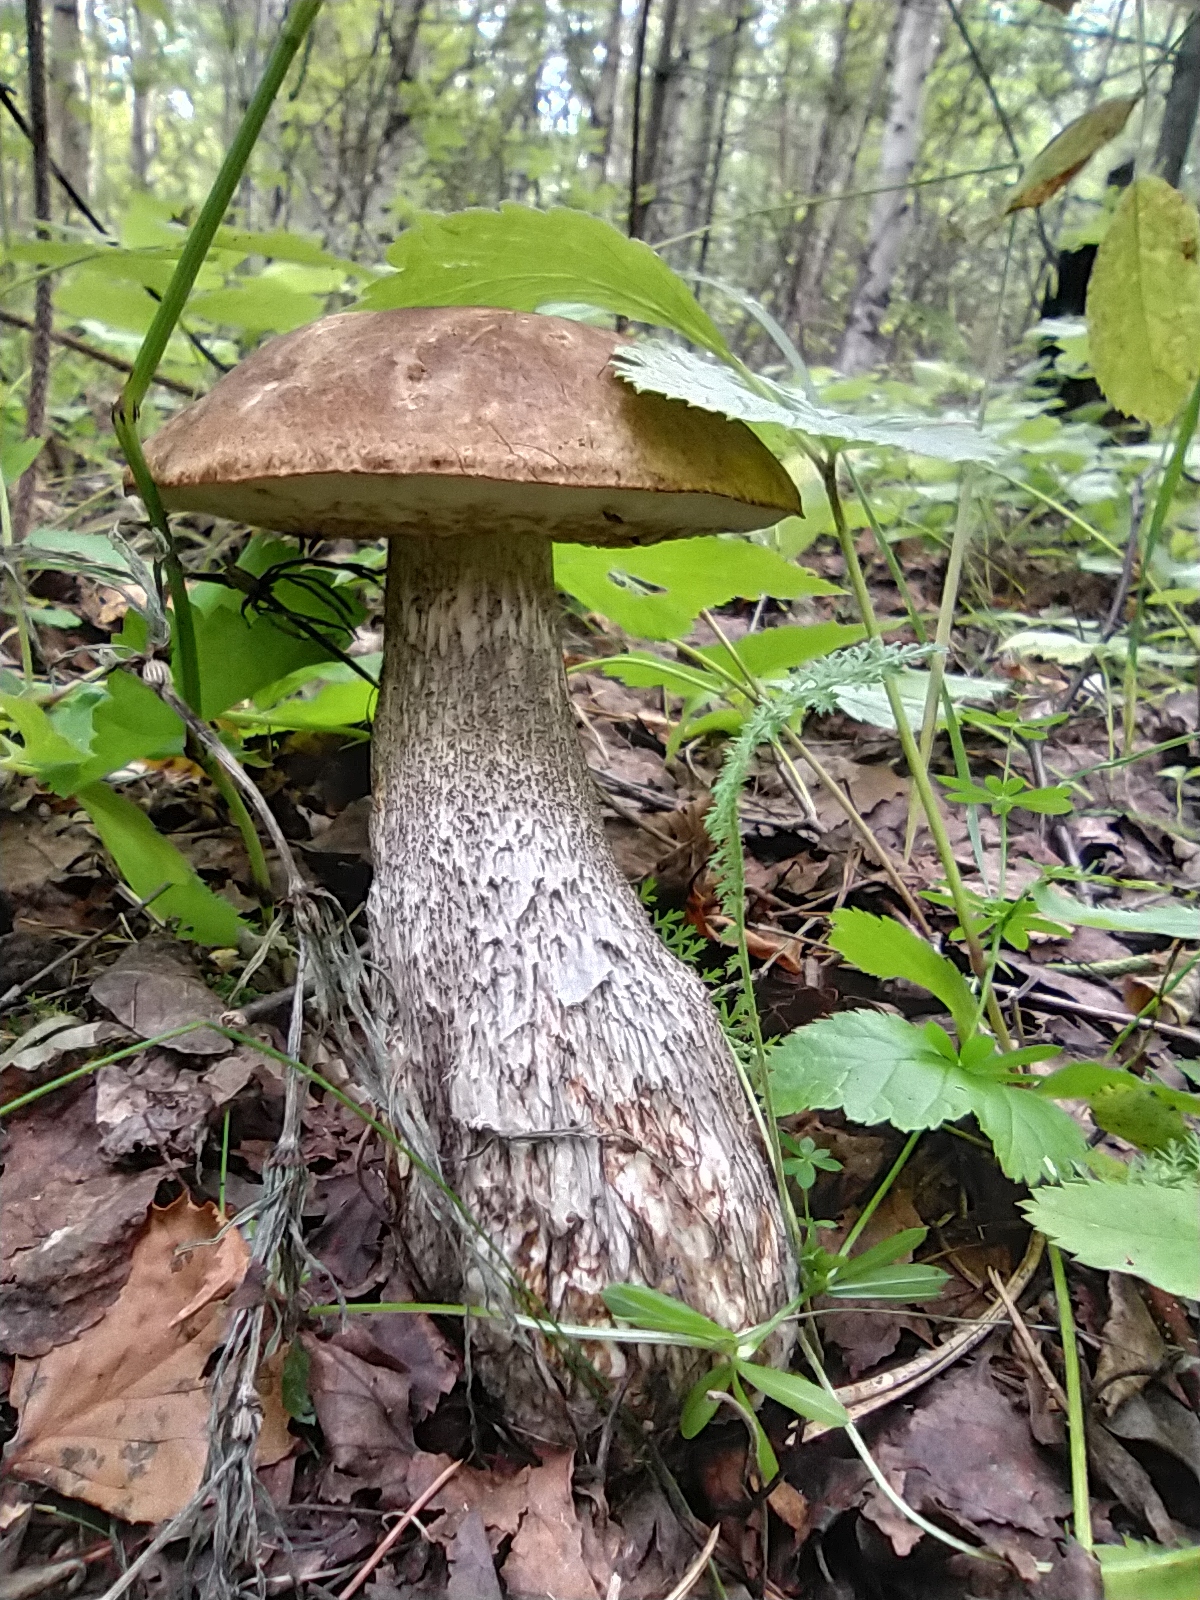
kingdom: Fungi
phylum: Basidiomycota
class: Agaricomycetes
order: Boletales
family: Boletaceae
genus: Leccinum
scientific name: Leccinum scabrum
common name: Blushing bolete
